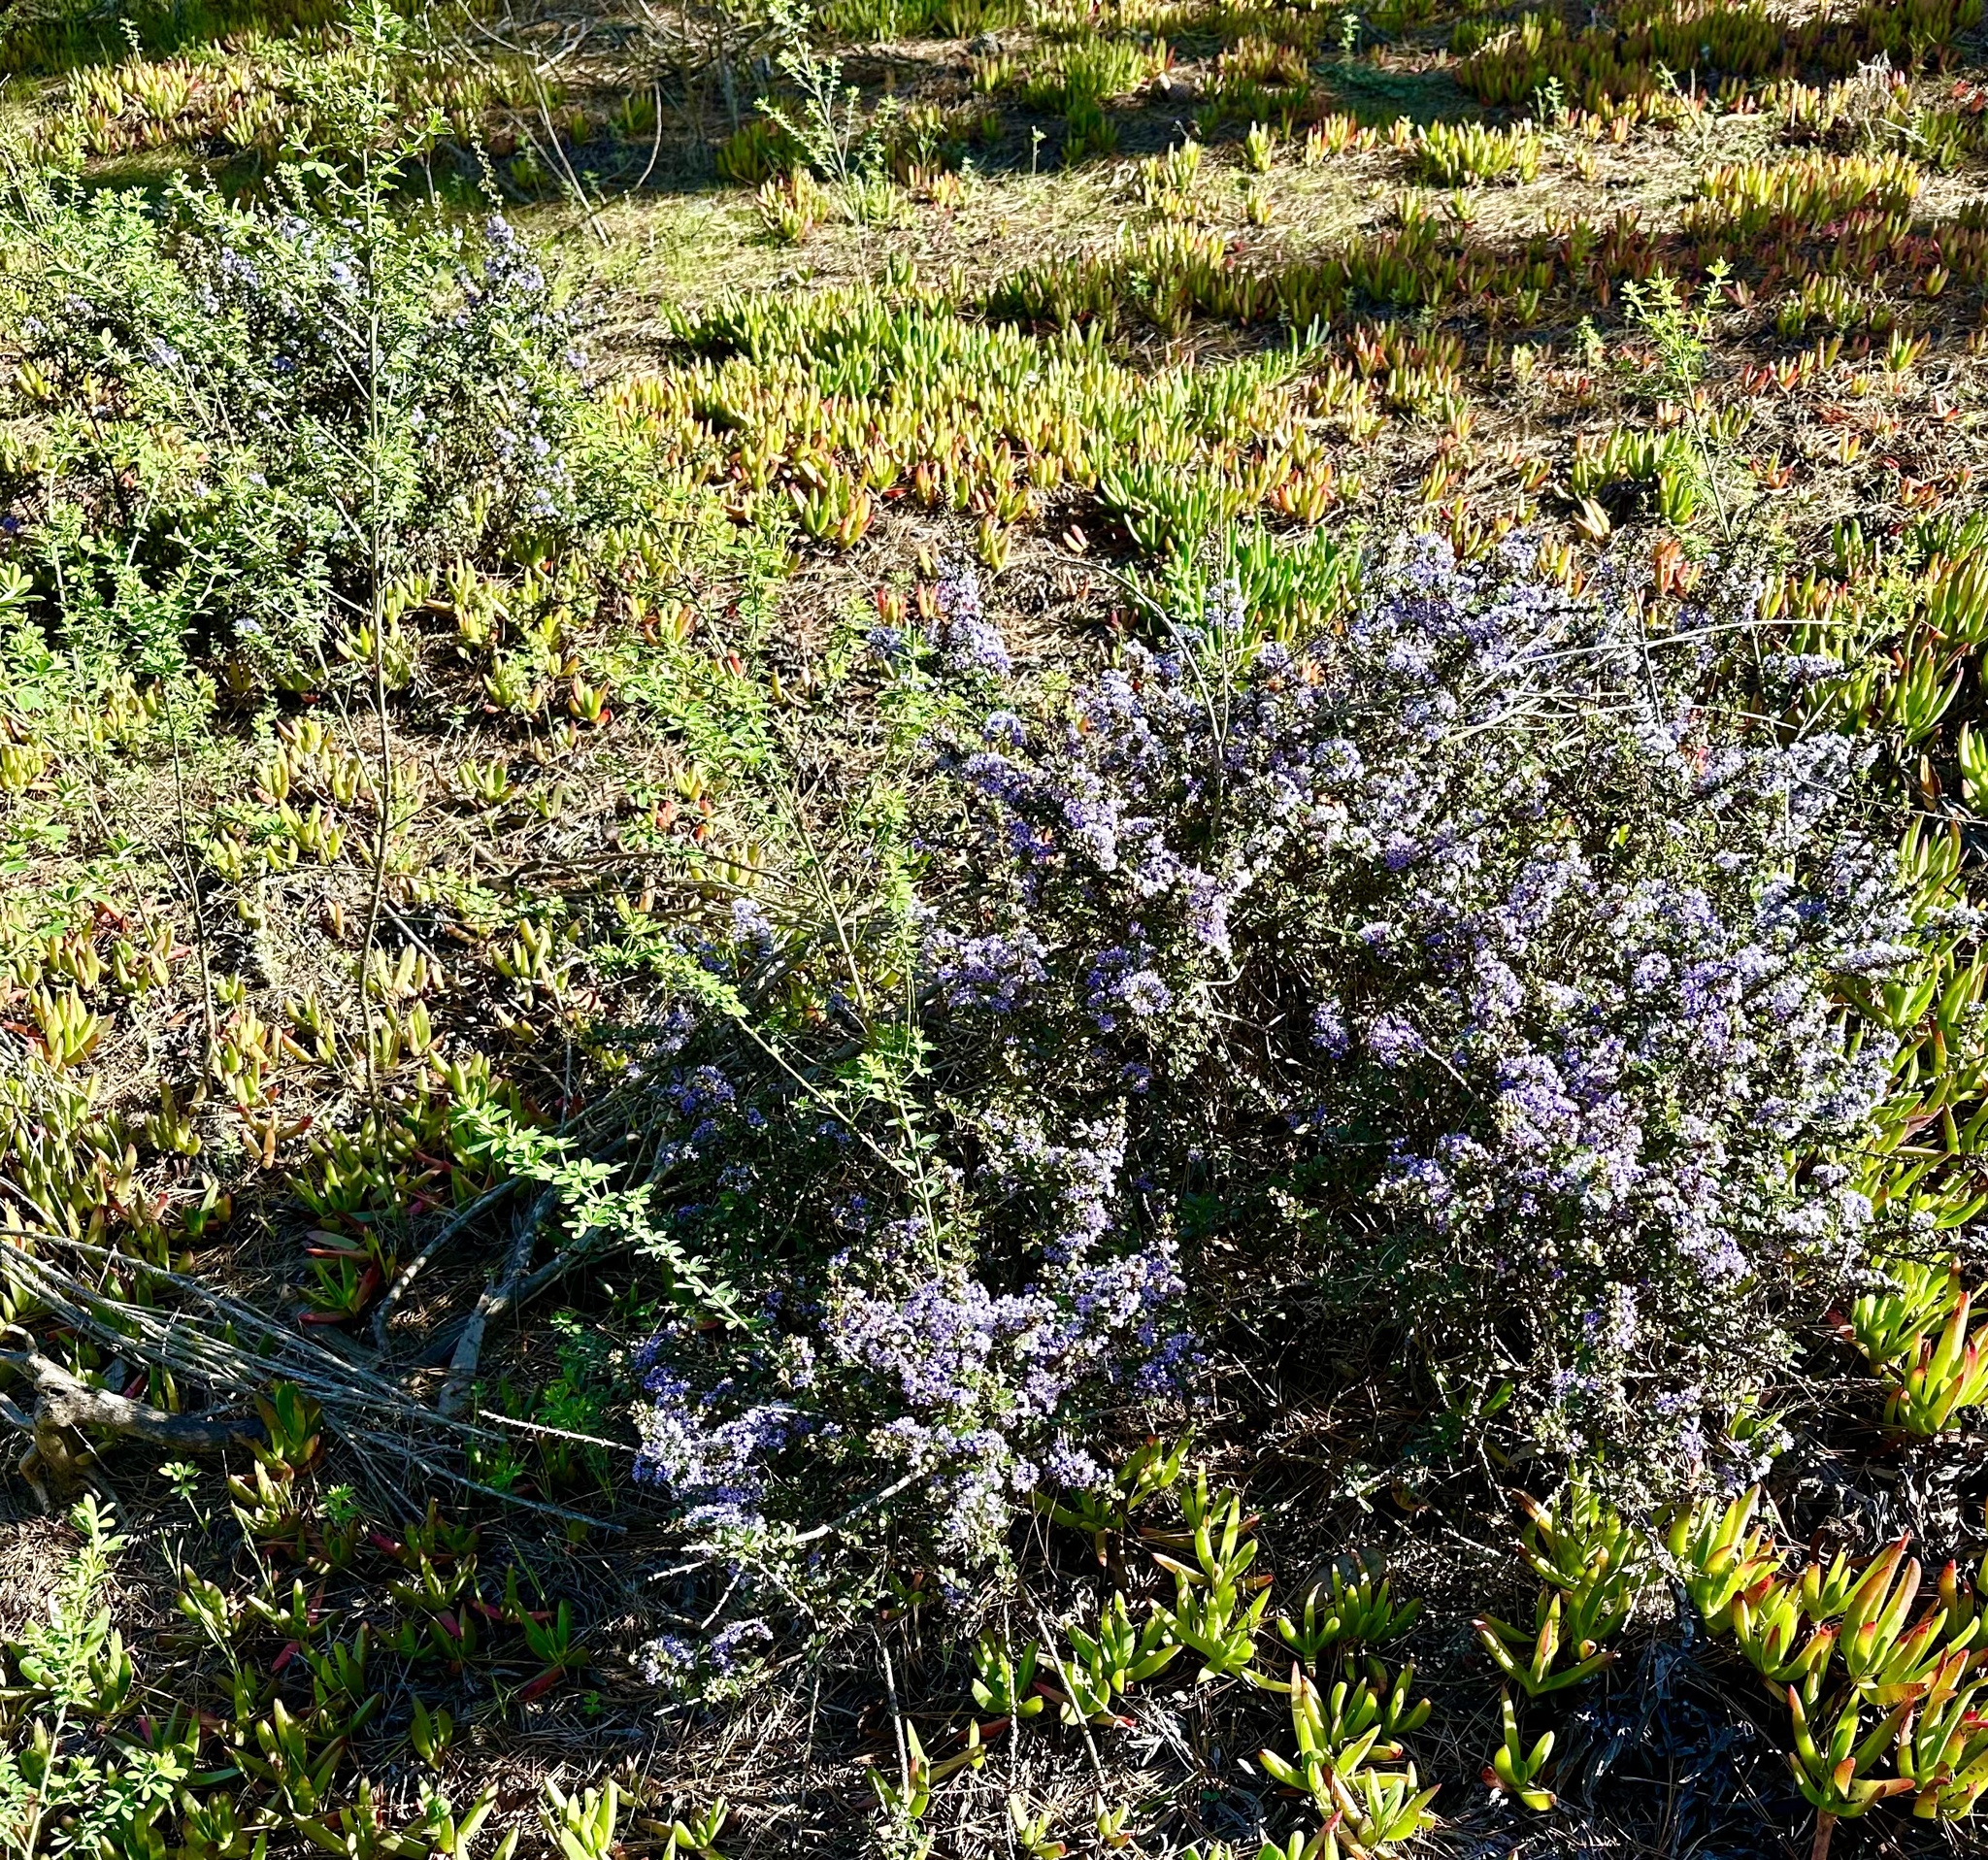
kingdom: Plantae
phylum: Tracheophyta
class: Magnoliopsida
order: Rosales
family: Rhamnaceae
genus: Ceanothus
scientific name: Ceanothus cuneatus
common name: Cuneate ceanothus
